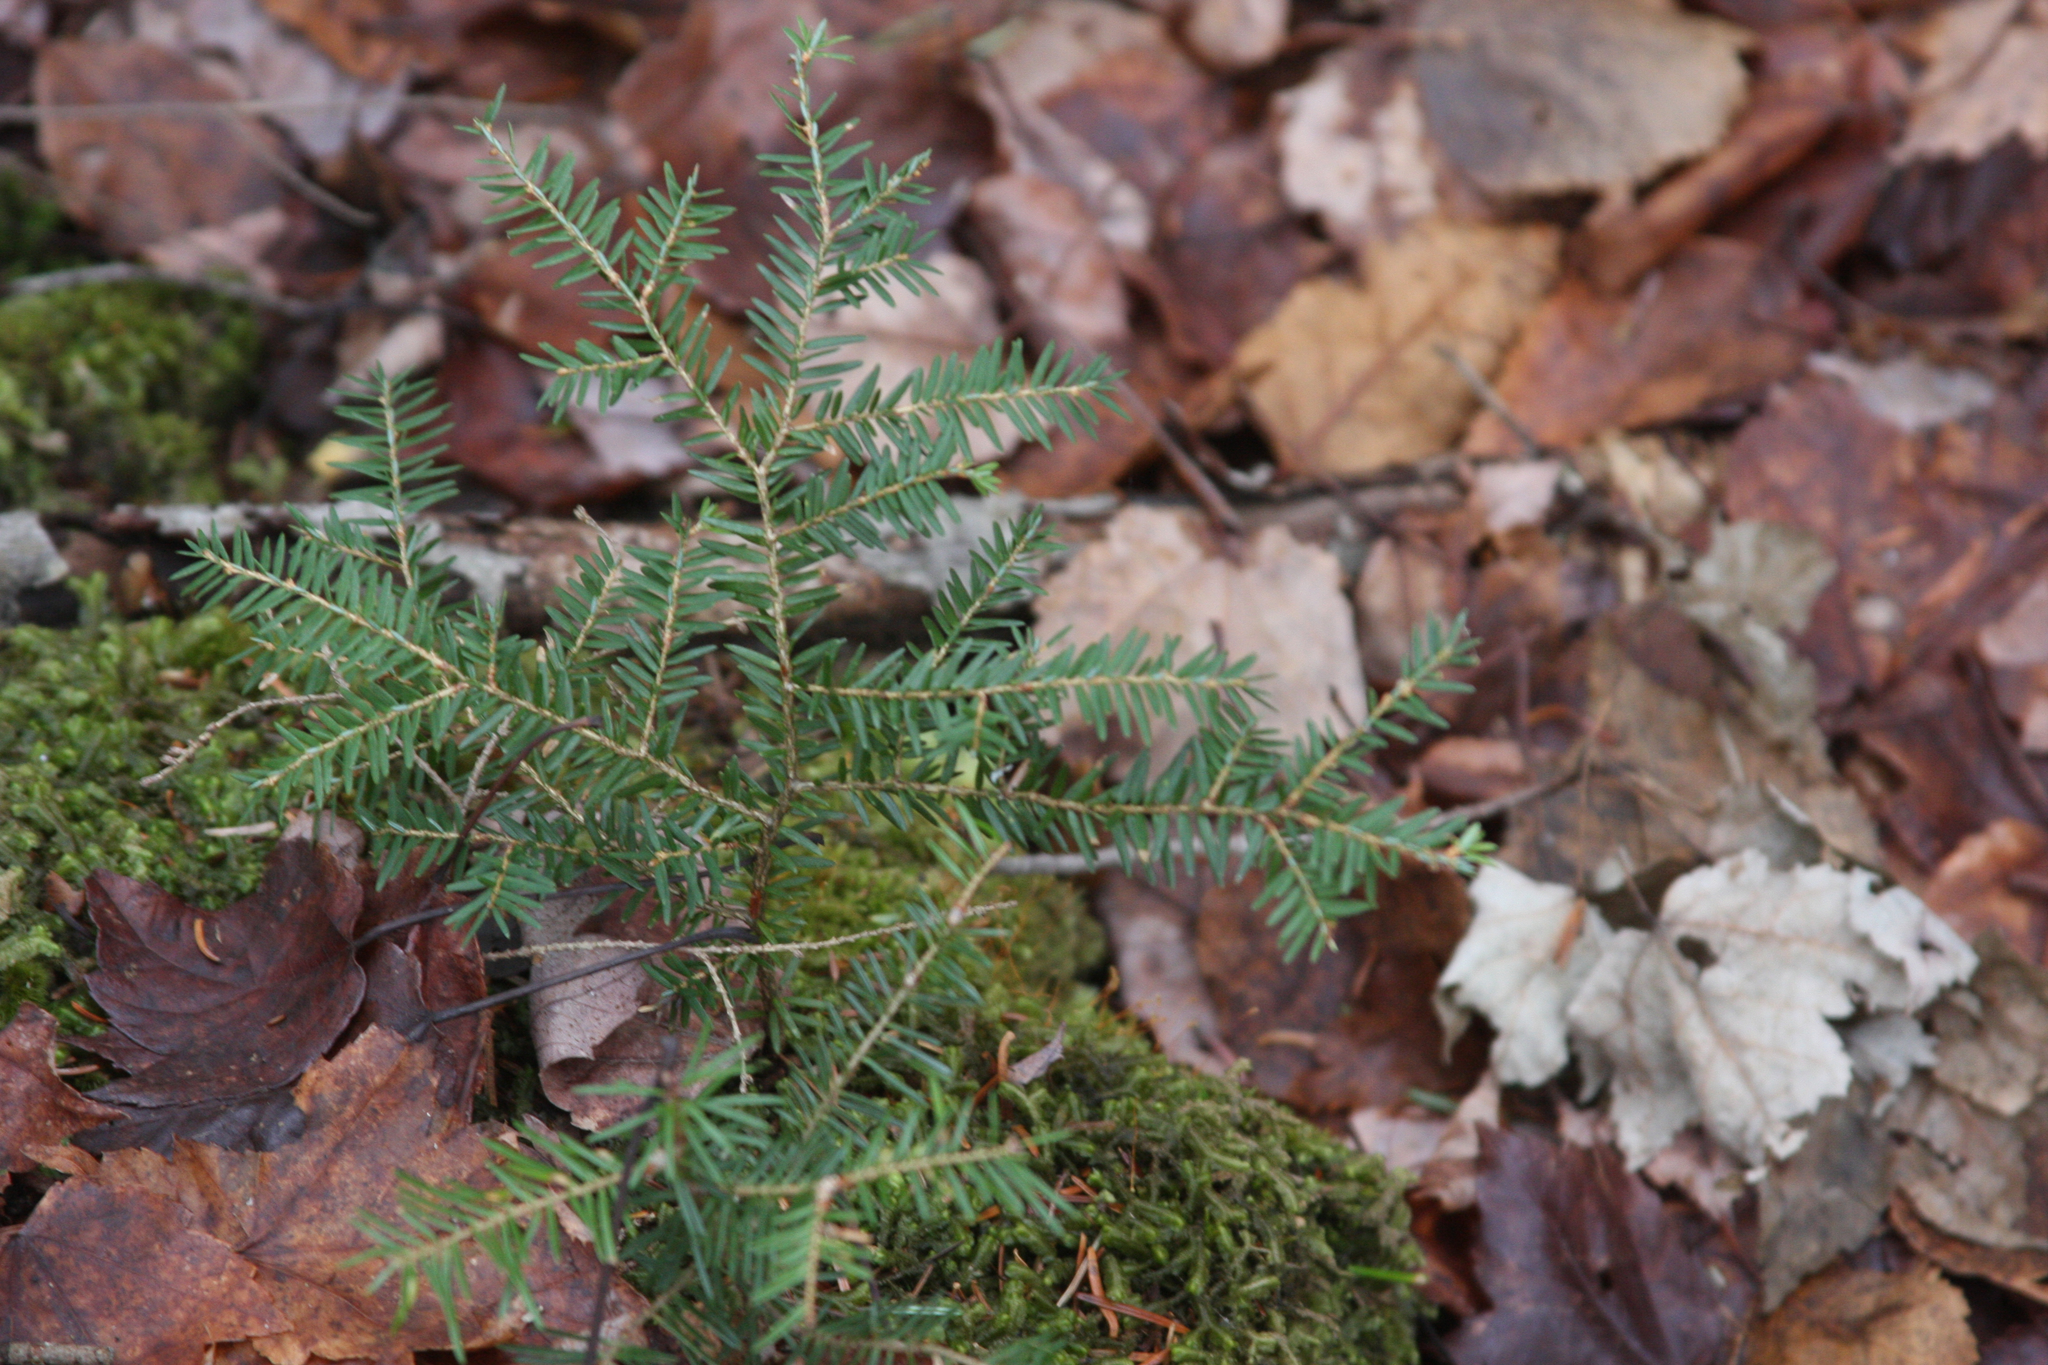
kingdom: Plantae
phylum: Tracheophyta
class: Pinopsida
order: Pinales
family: Pinaceae
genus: Tsuga
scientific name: Tsuga canadensis
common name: Eastern hemlock
